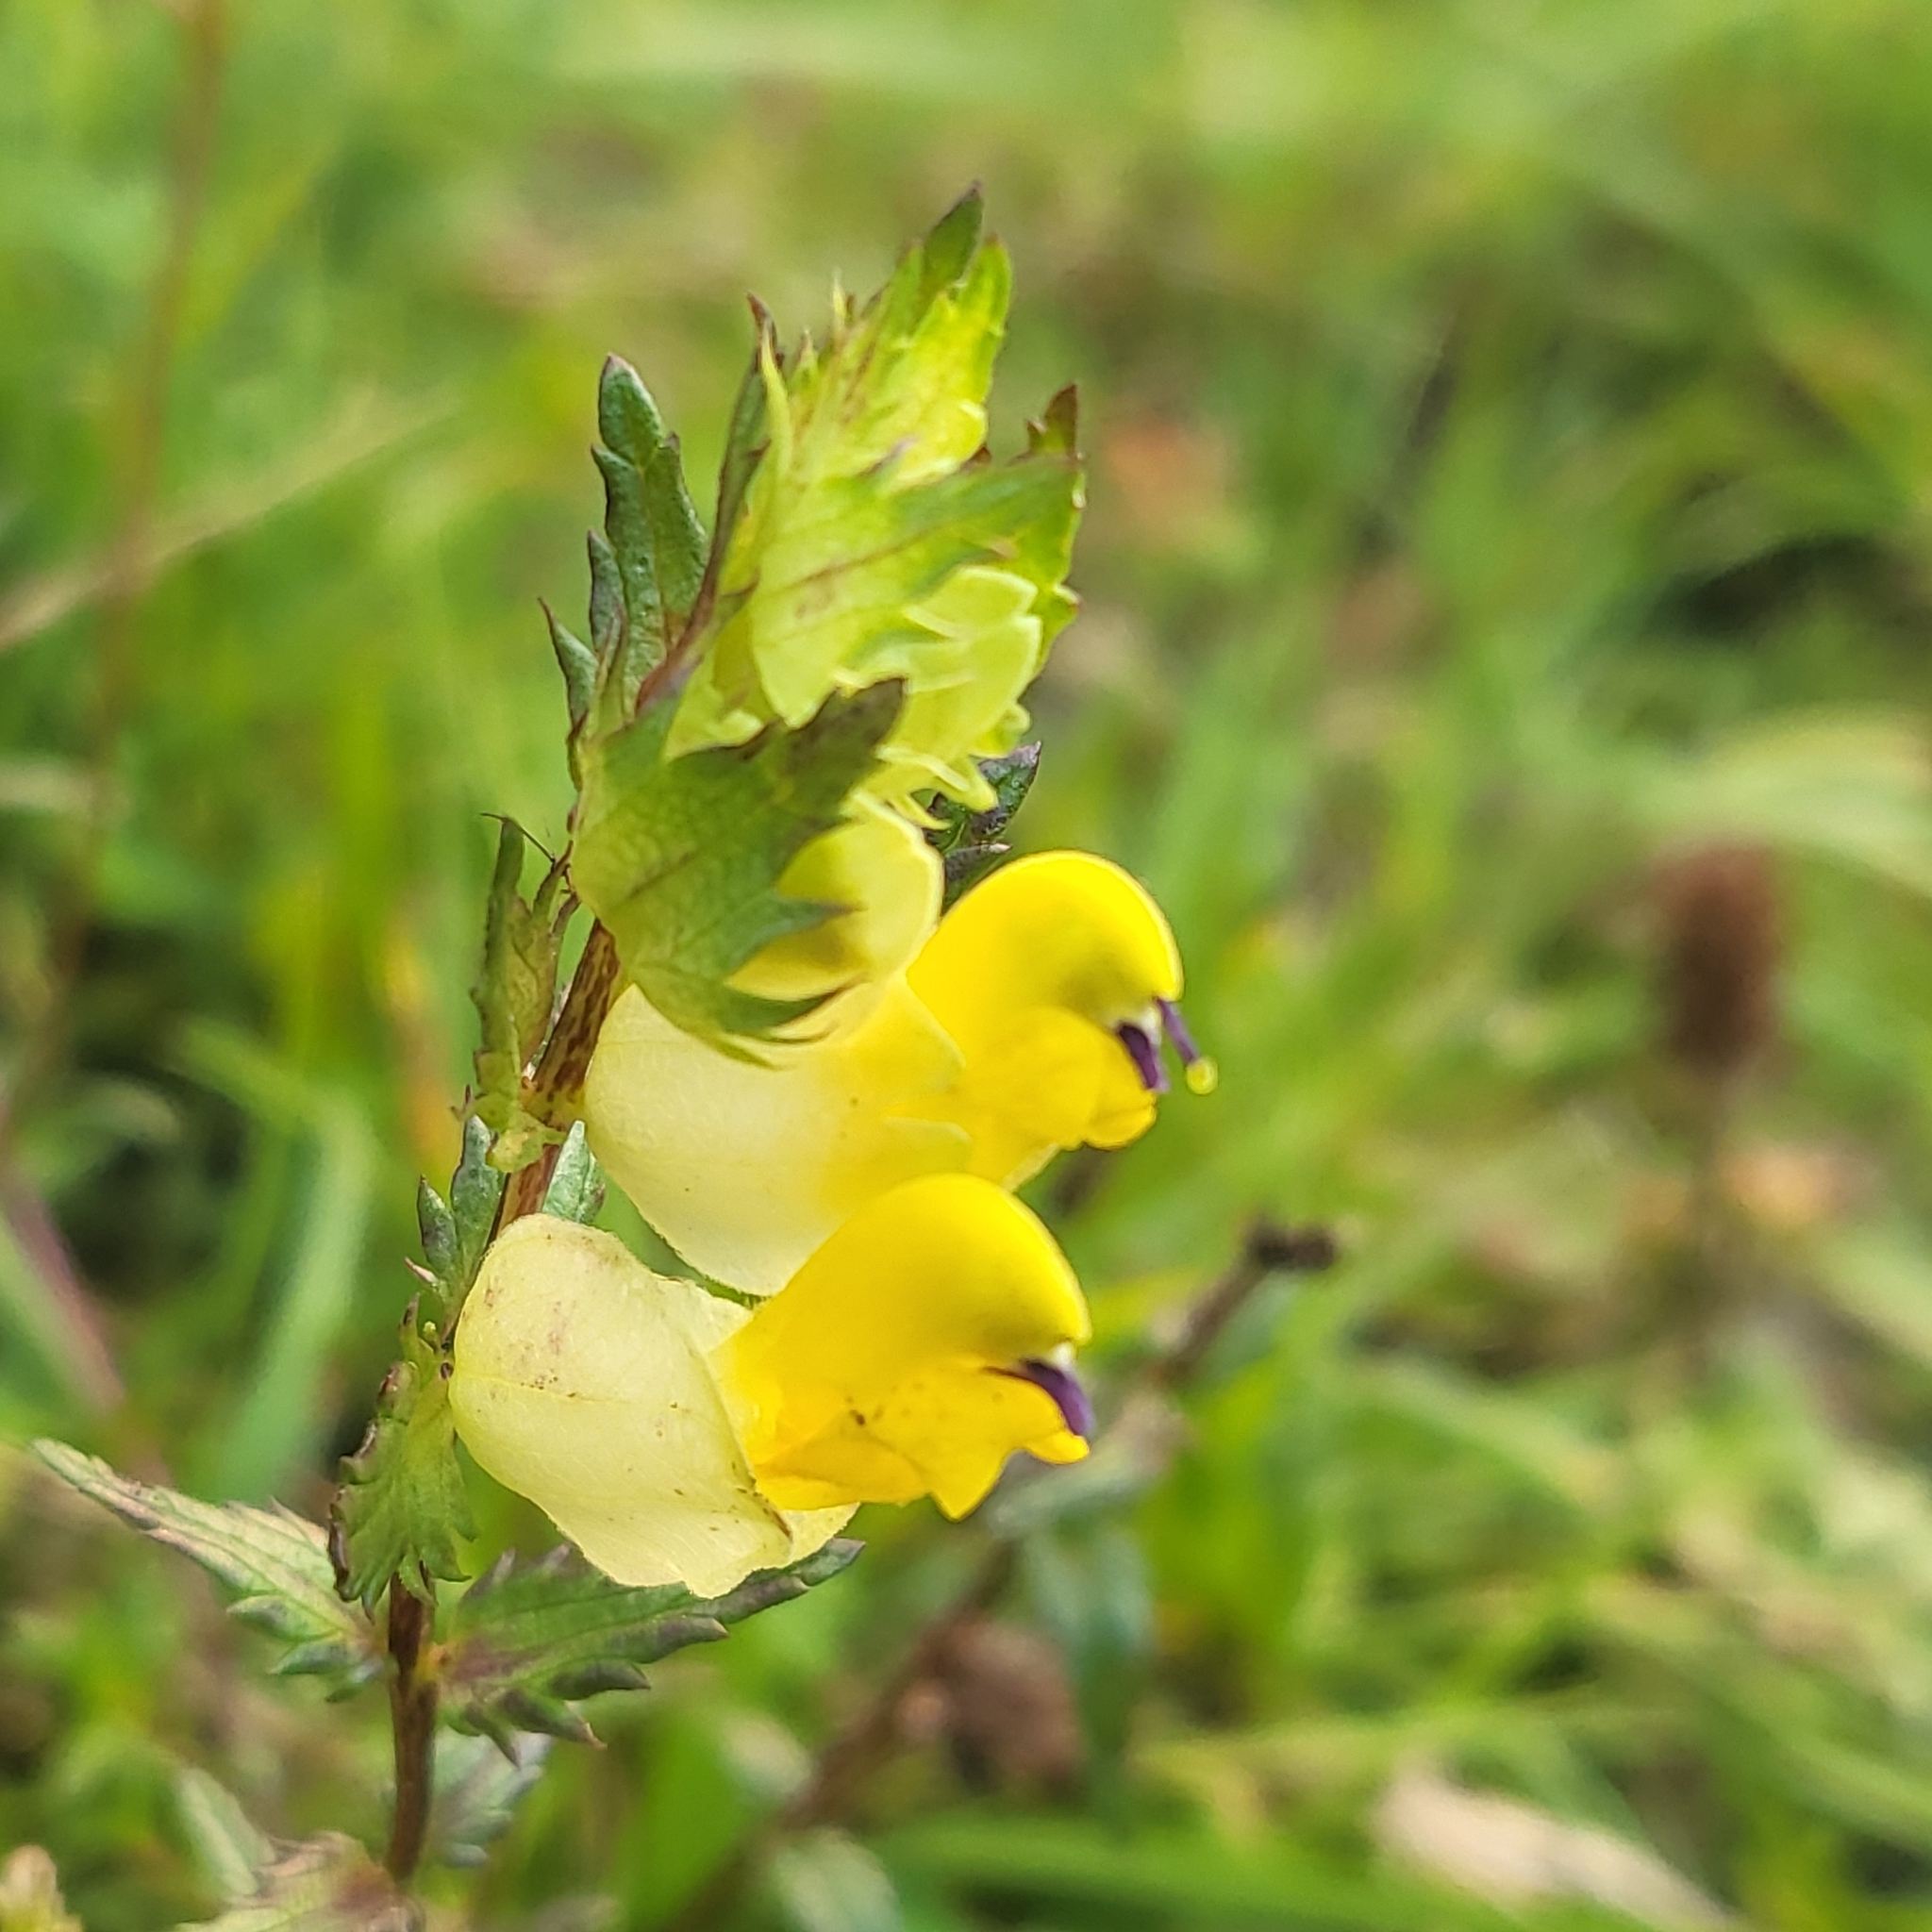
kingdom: Plantae
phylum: Tracheophyta
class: Magnoliopsida
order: Lamiales
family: Orobanchaceae
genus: Rhinanthus
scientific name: Rhinanthus minor
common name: Yellow-rattle
